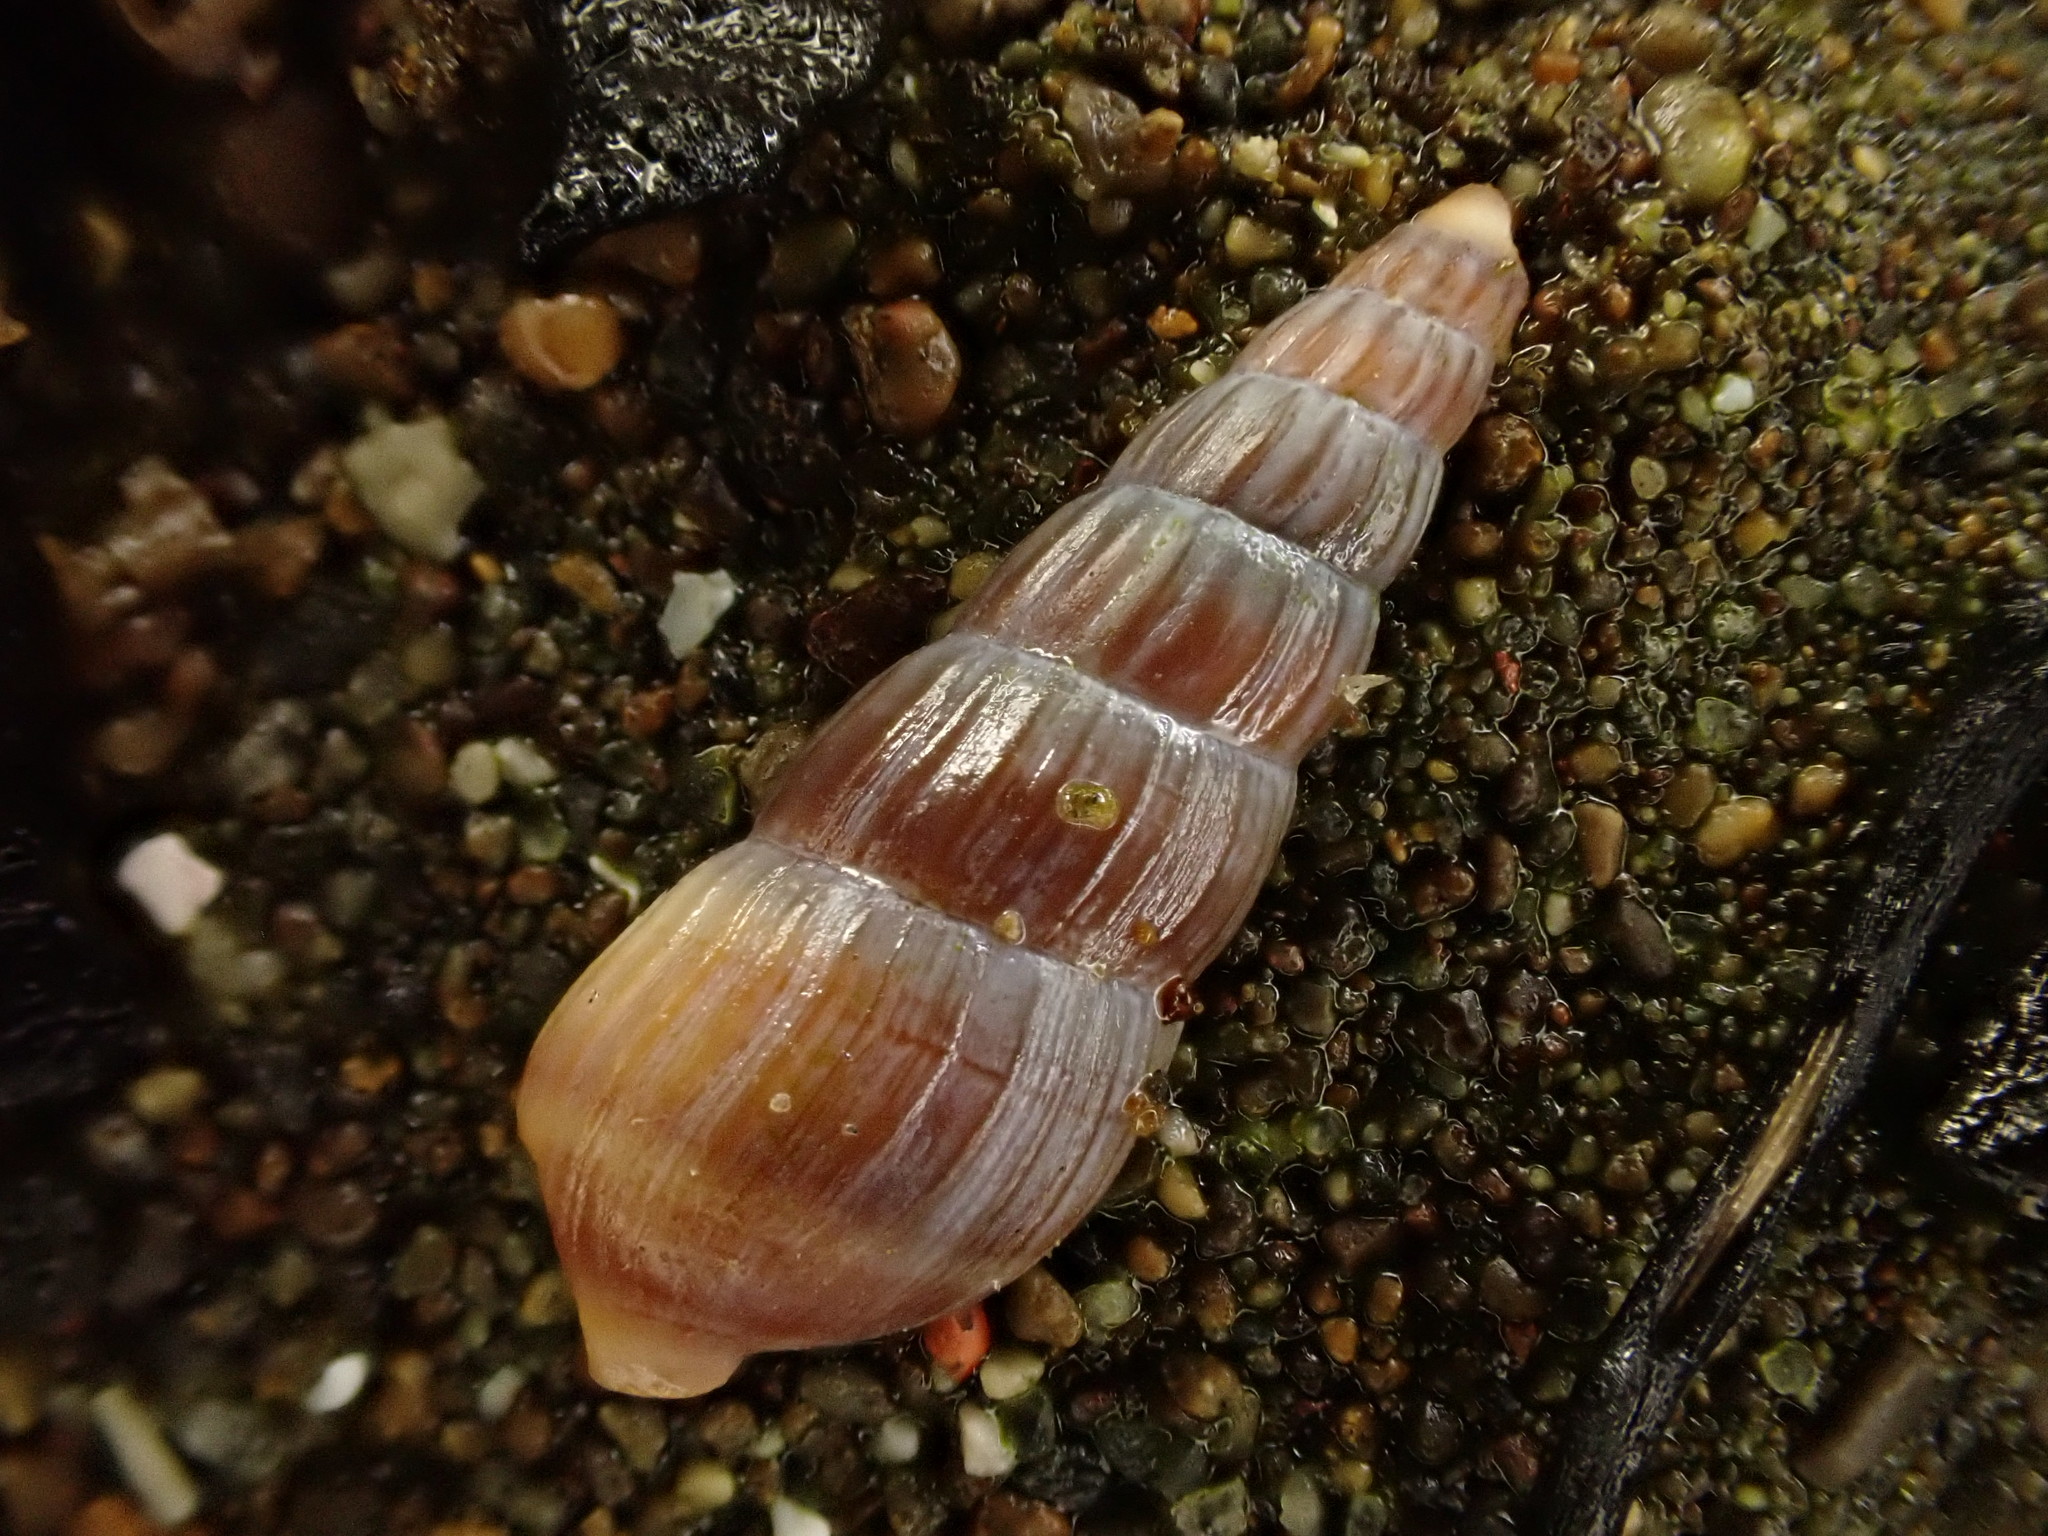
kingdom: Animalia
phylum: Mollusca
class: Gastropoda
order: Neogastropoda
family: Terebridae
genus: Duplicaria
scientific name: Duplicaria tristis
